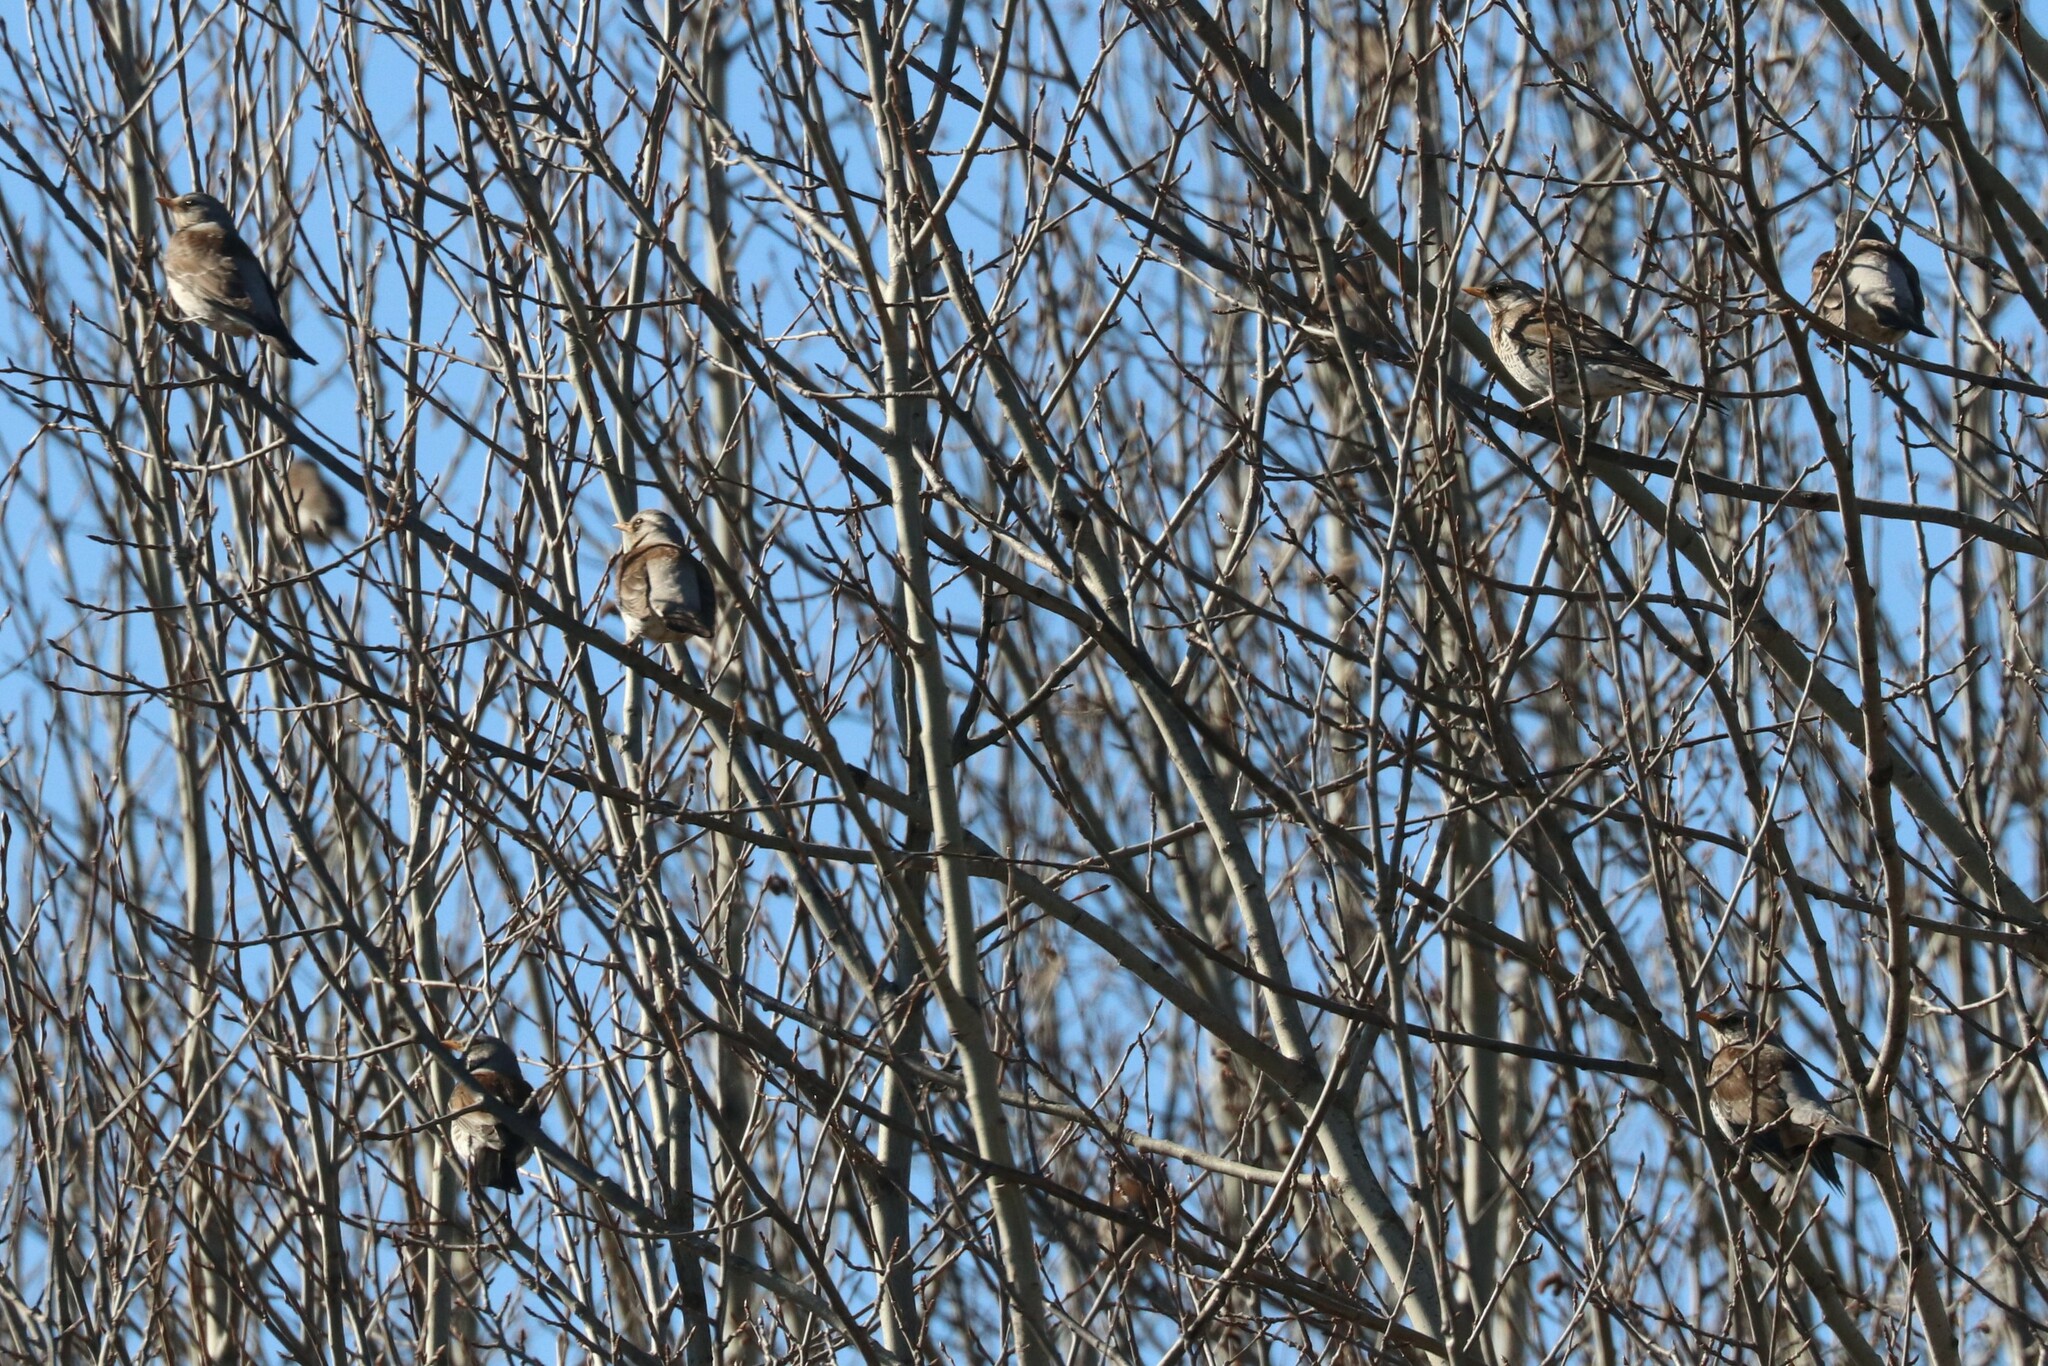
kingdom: Animalia
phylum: Chordata
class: Aves
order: Passeriformes
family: Turdidae
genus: Turdus
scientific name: Turdus pilaris
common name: Fieldfare
